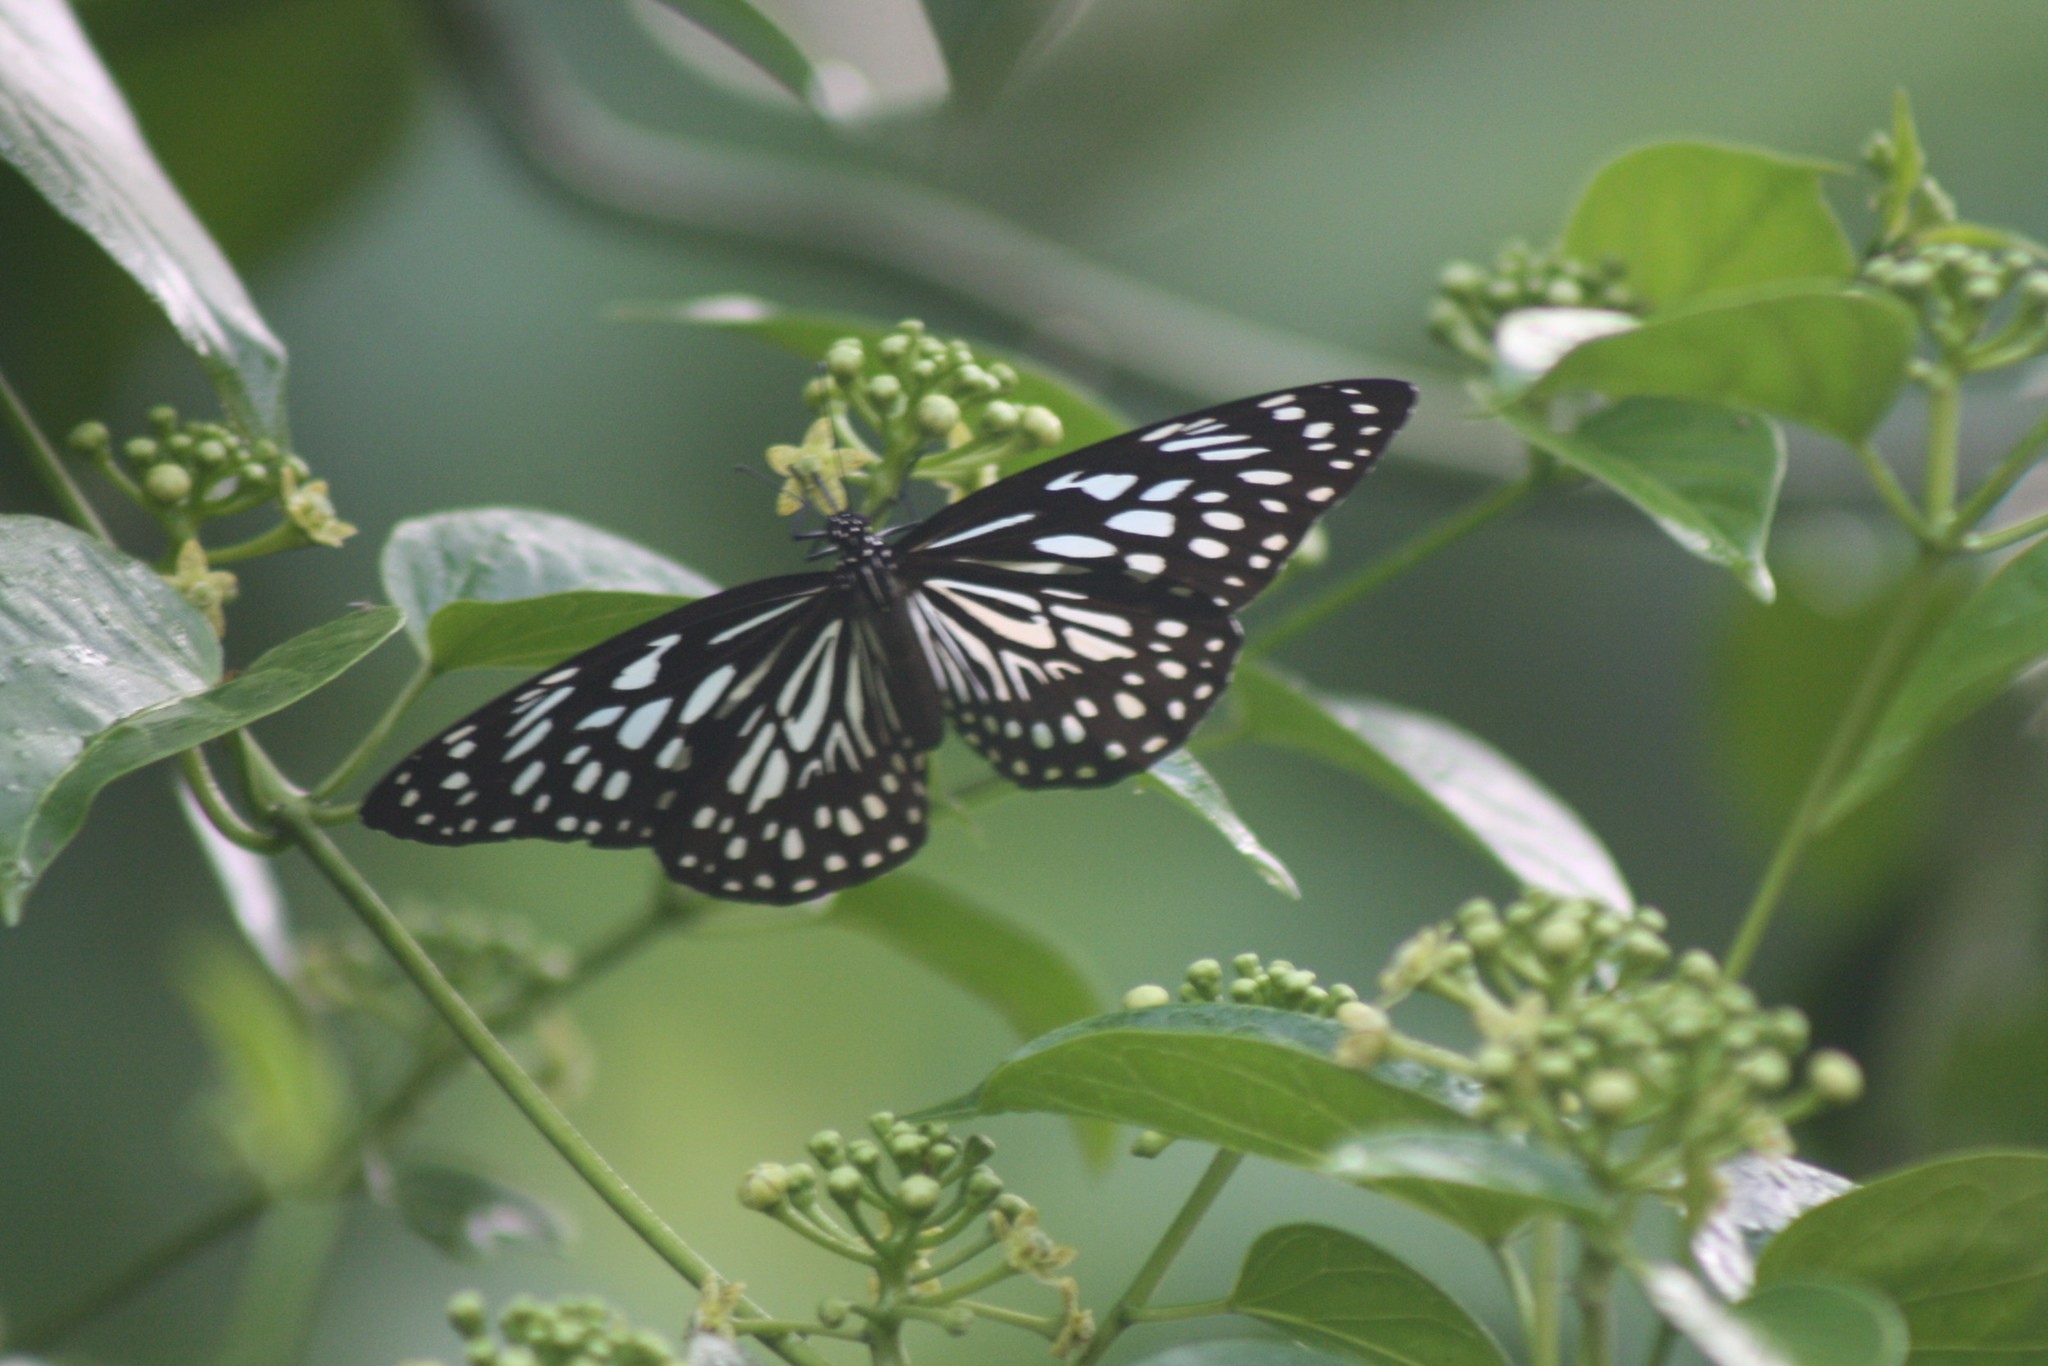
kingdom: Animalia
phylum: Arthropoda
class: Insecta
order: Lepidoptera
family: Nymphalidae
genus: Tirumala
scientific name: Tirumala septentrionis
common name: Dark blue tiger butterfly
